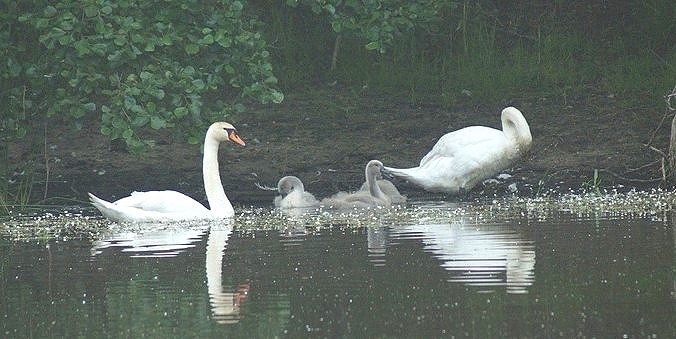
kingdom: Animalia
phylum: Chordata
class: Aves
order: Anseriformes
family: Anatidae
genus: Cygnus
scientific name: Cygnus olor
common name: Mute swan
